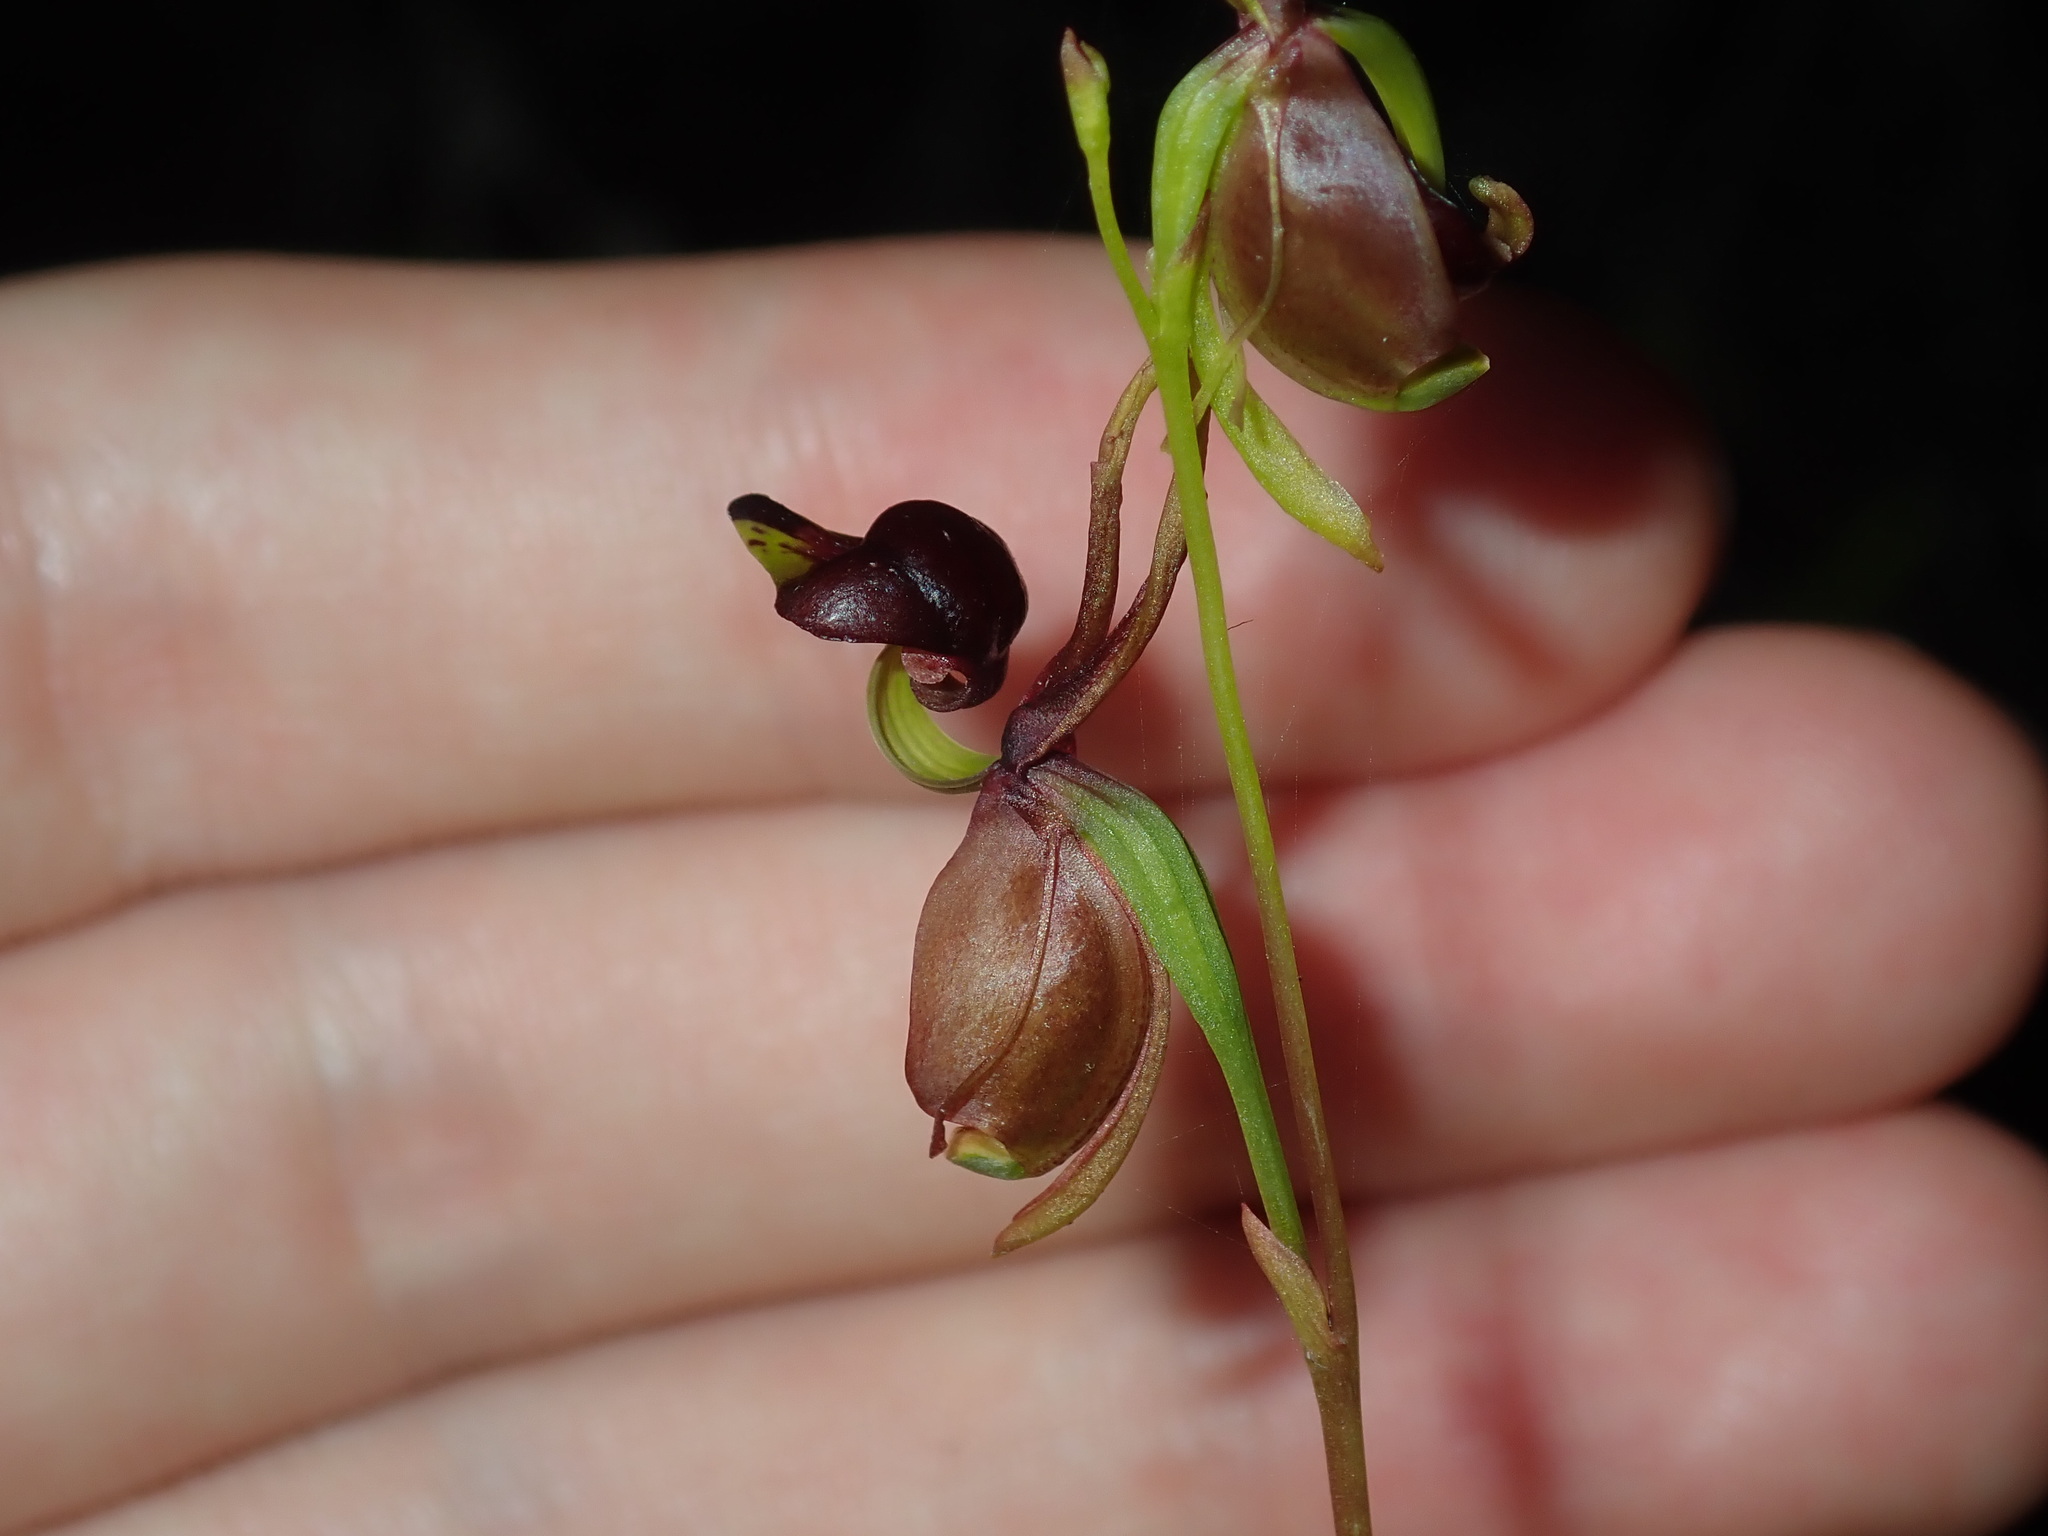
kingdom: Plantae
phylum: Tracheophyta
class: Liliopsida
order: Asparagales
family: Orchidaceae
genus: Caleana
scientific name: Caleana major
